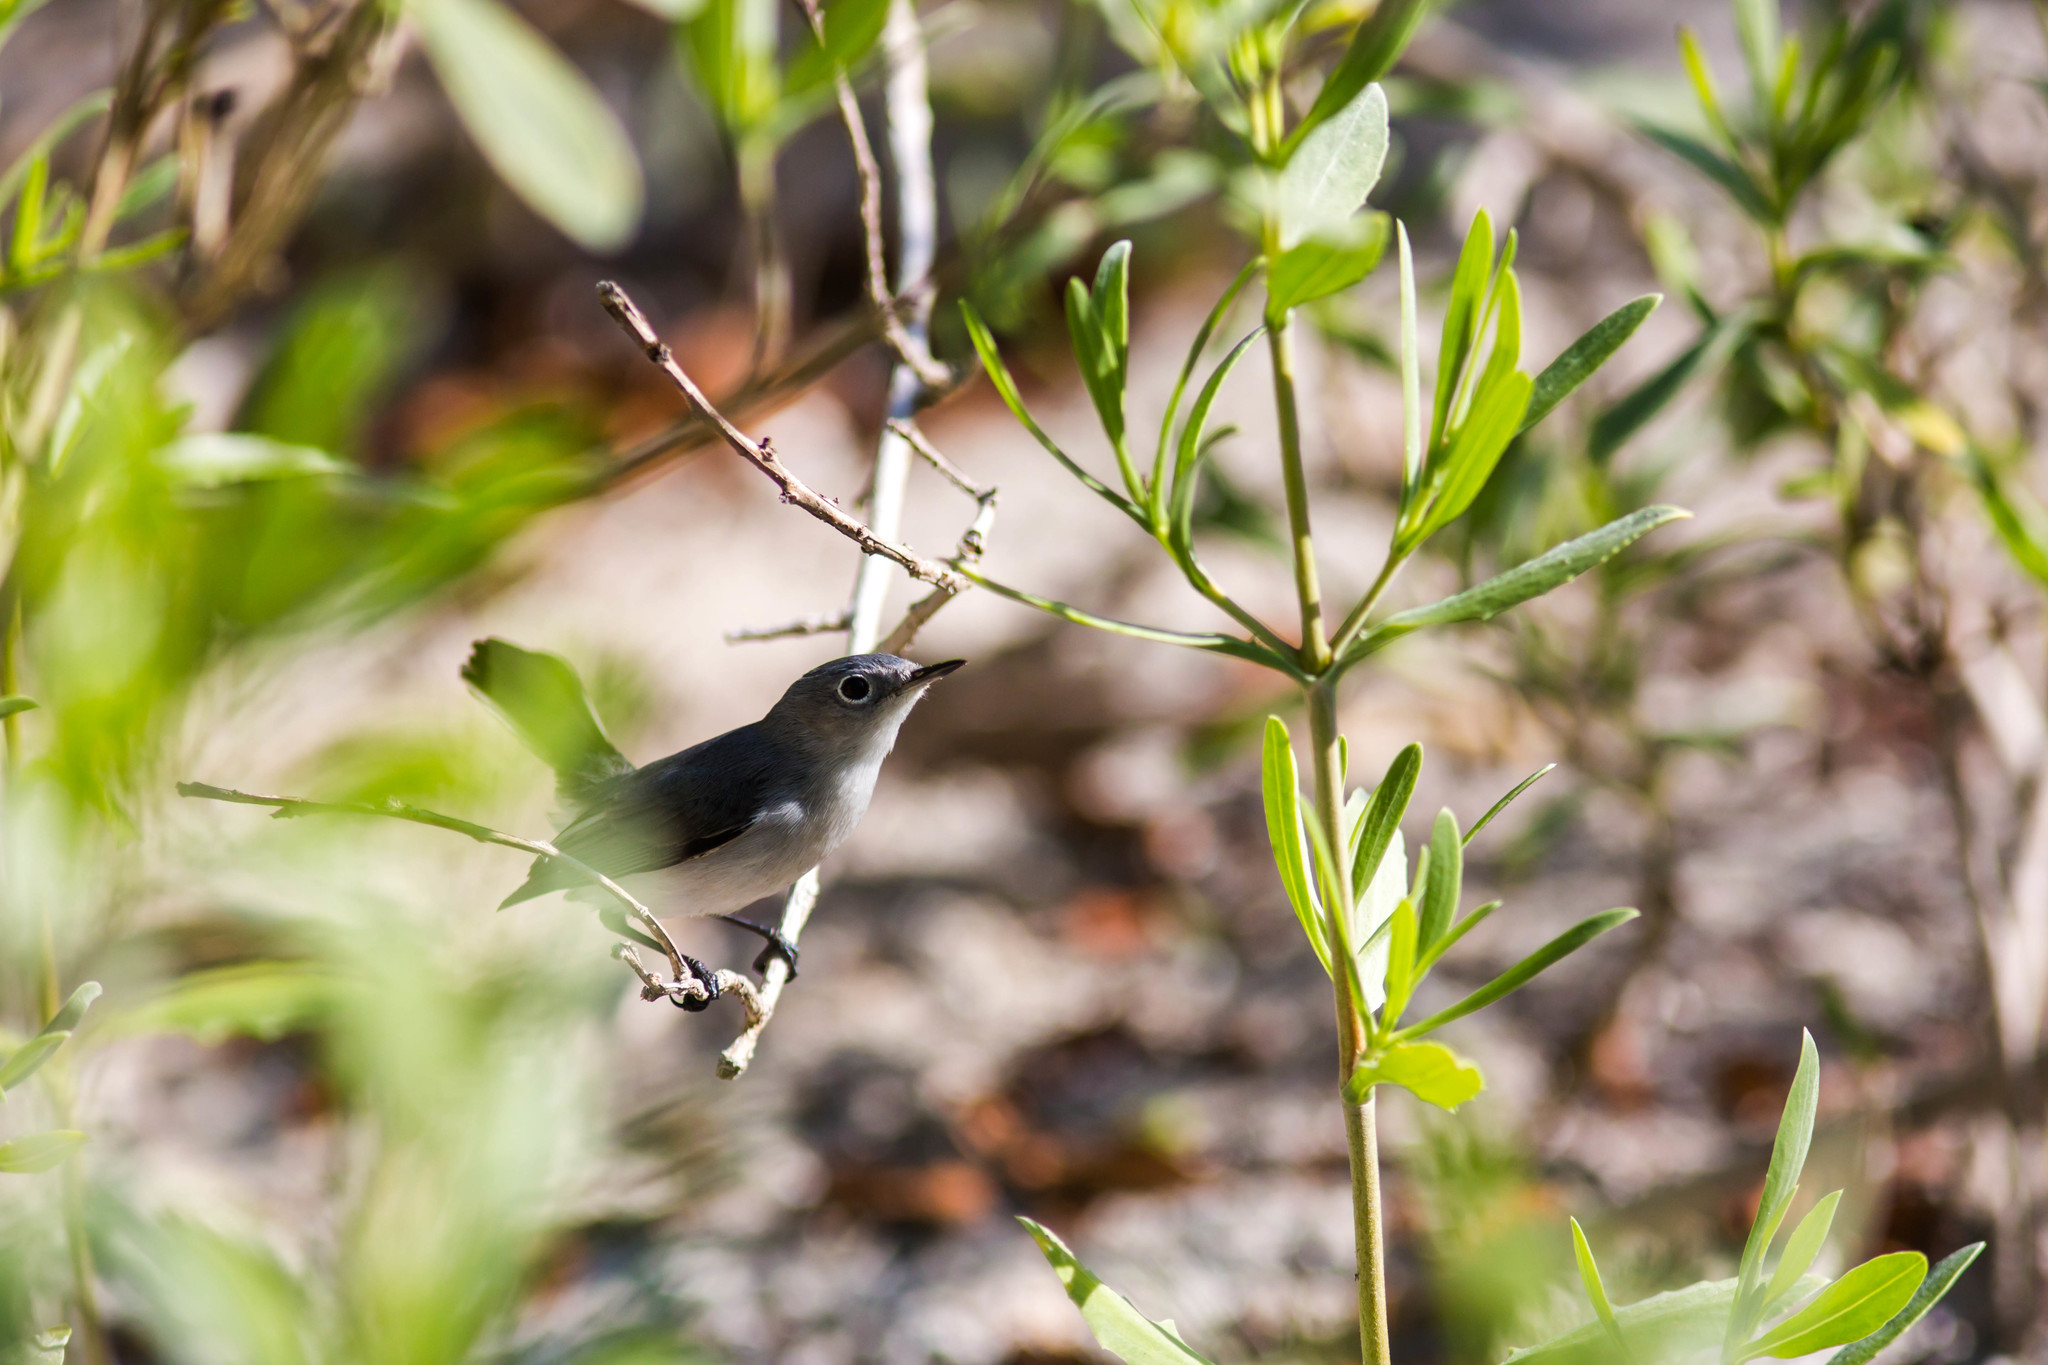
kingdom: Animalia
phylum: Chordata
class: Aves
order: Passeriformes
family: Polioptilidae
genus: Polioptila
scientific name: Polioptila caerulea
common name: Blue-gray gnatcatcher
